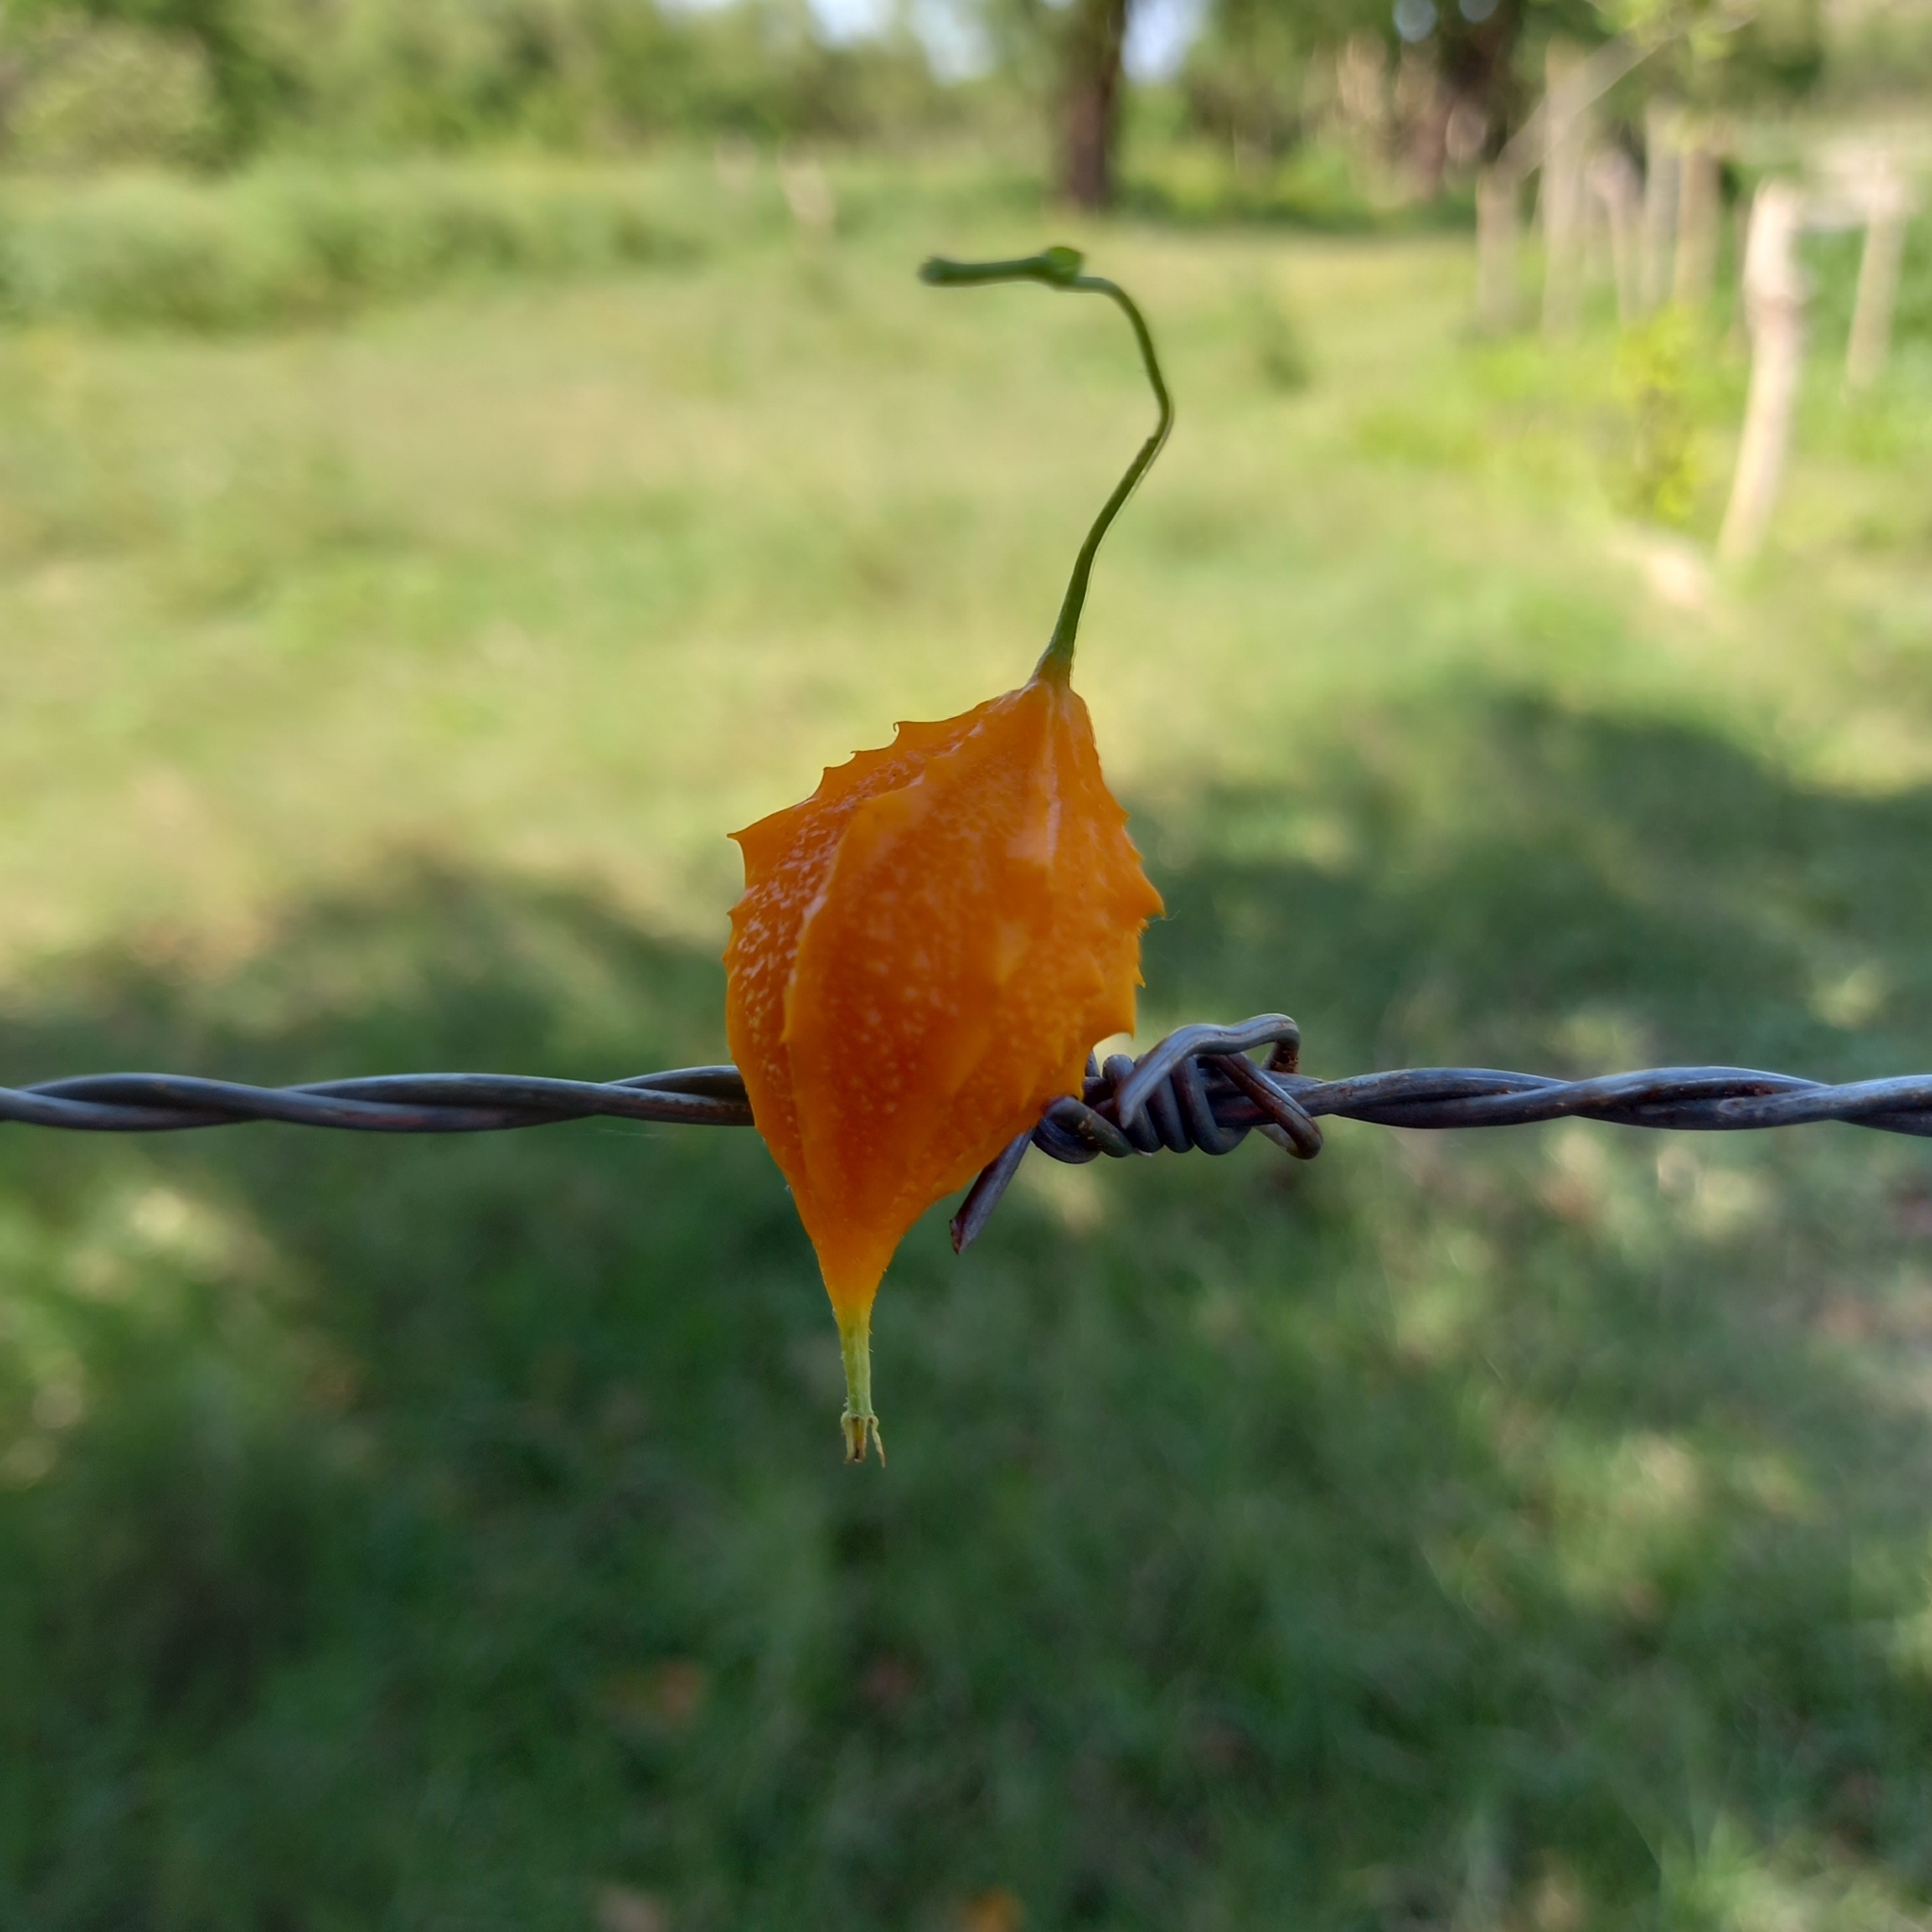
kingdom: Plantae
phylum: Tracheophyta
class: Magnoliopsida
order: Cucurbitales
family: Cucurbitaceae
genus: Momordica
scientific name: Momordica charantia
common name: Balsampear
